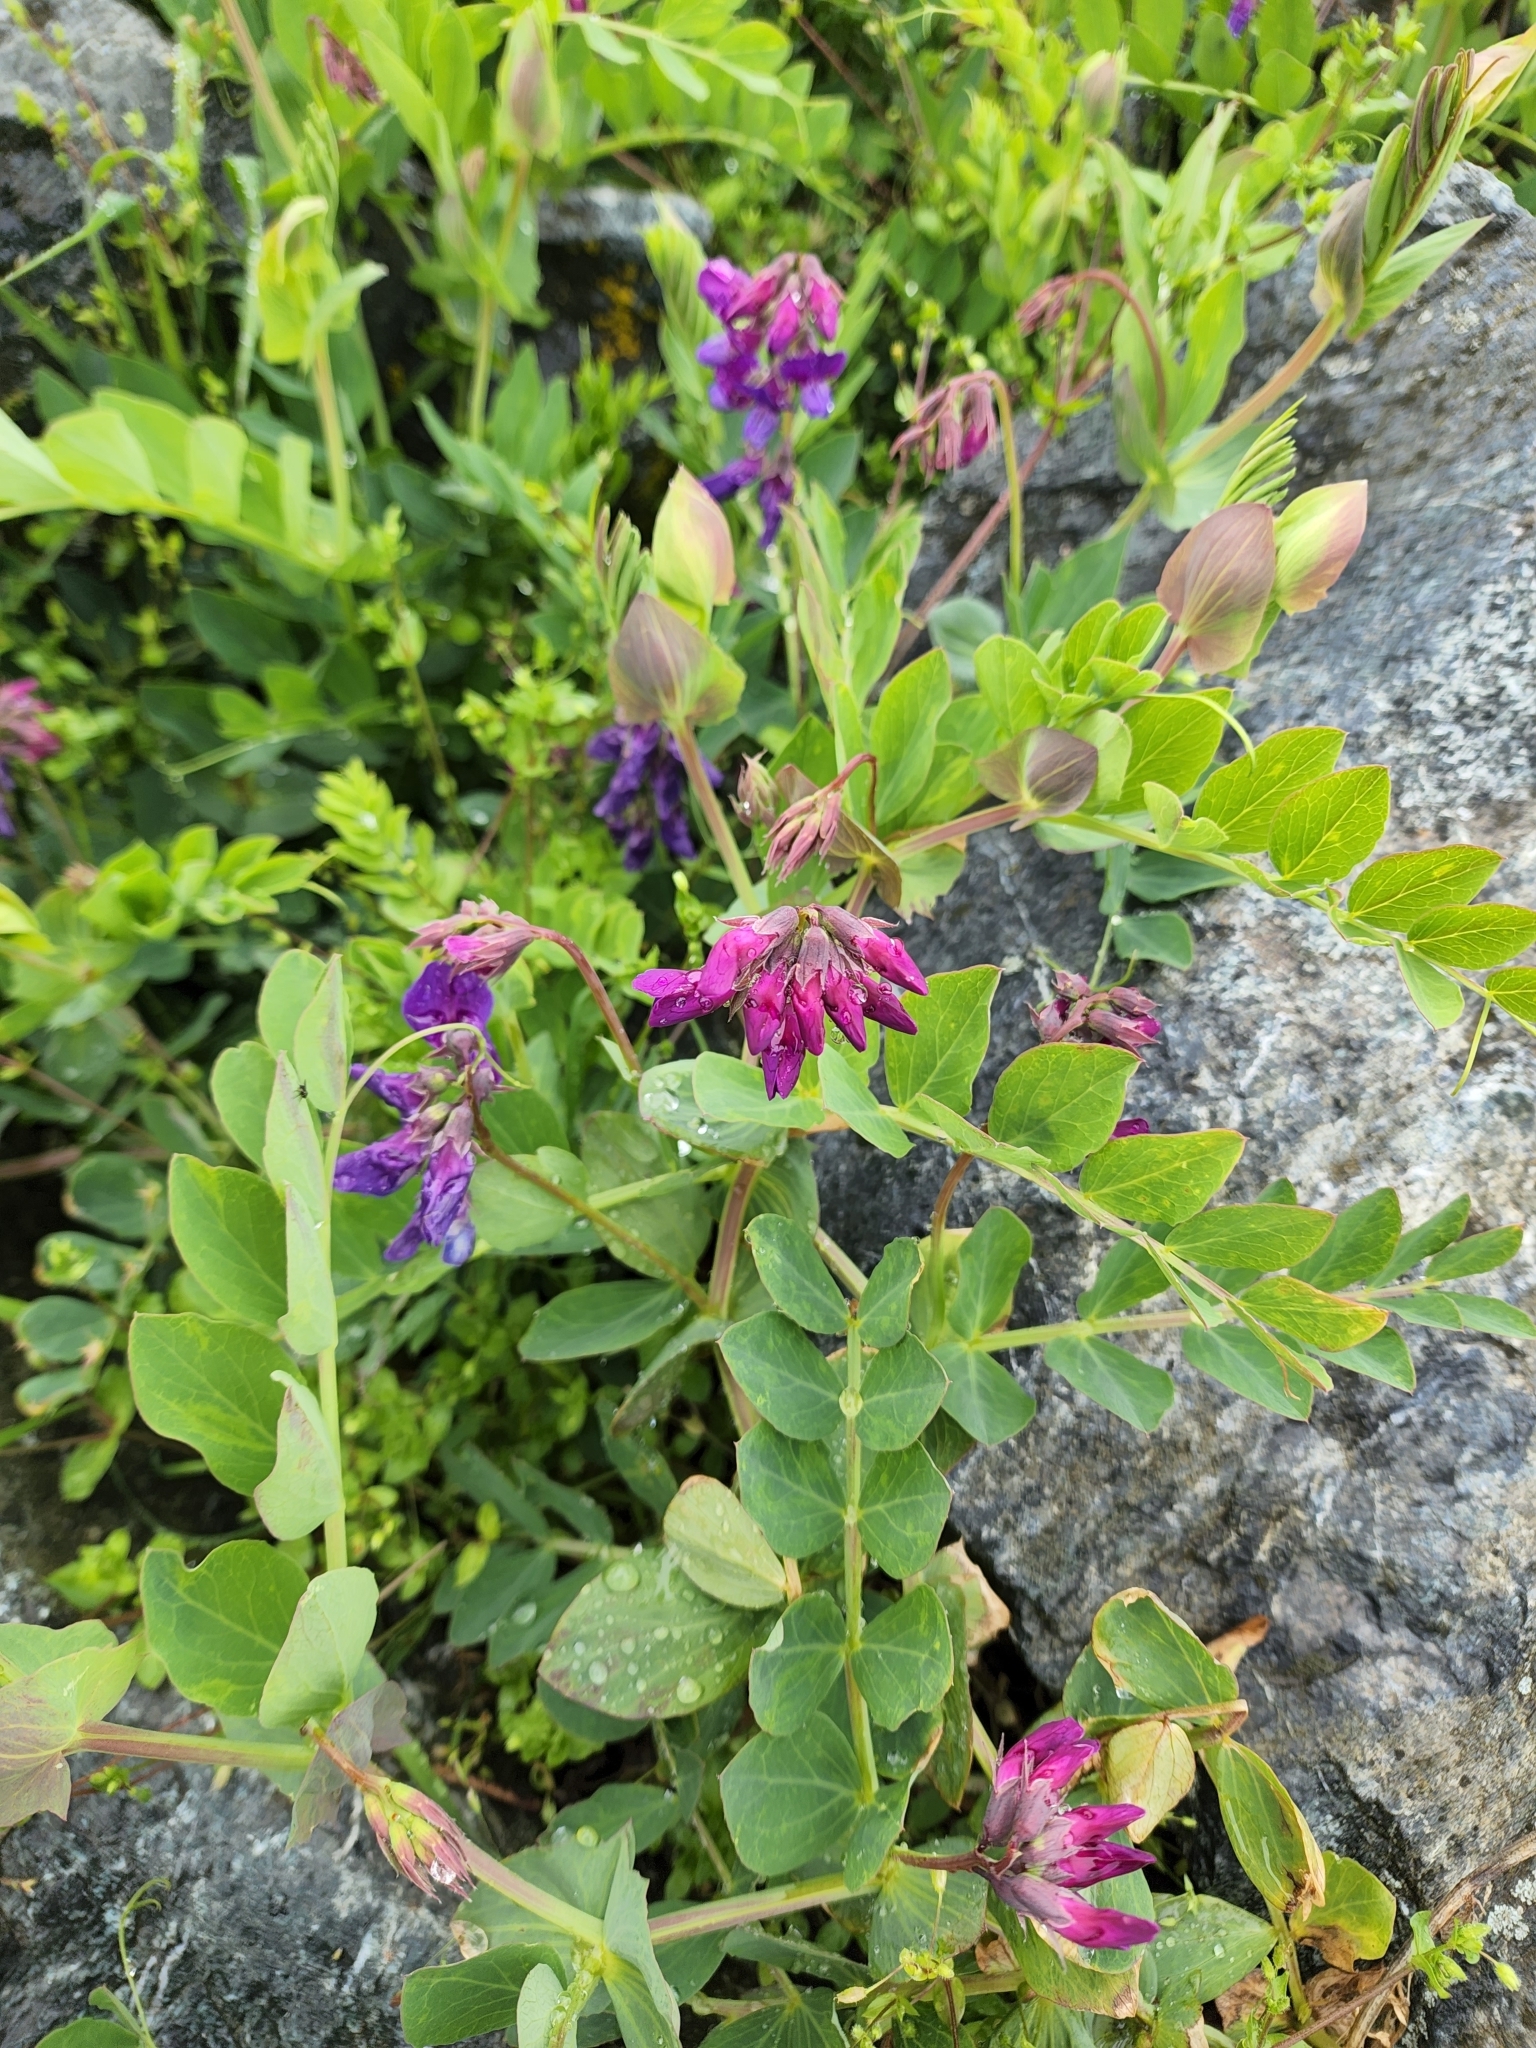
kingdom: Plantae
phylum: Tracheophyta
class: Magnoliopsida
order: Fabales
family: Fabaceae
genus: Lathyrus
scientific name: Lathyrus japonicus
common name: Sea pea
